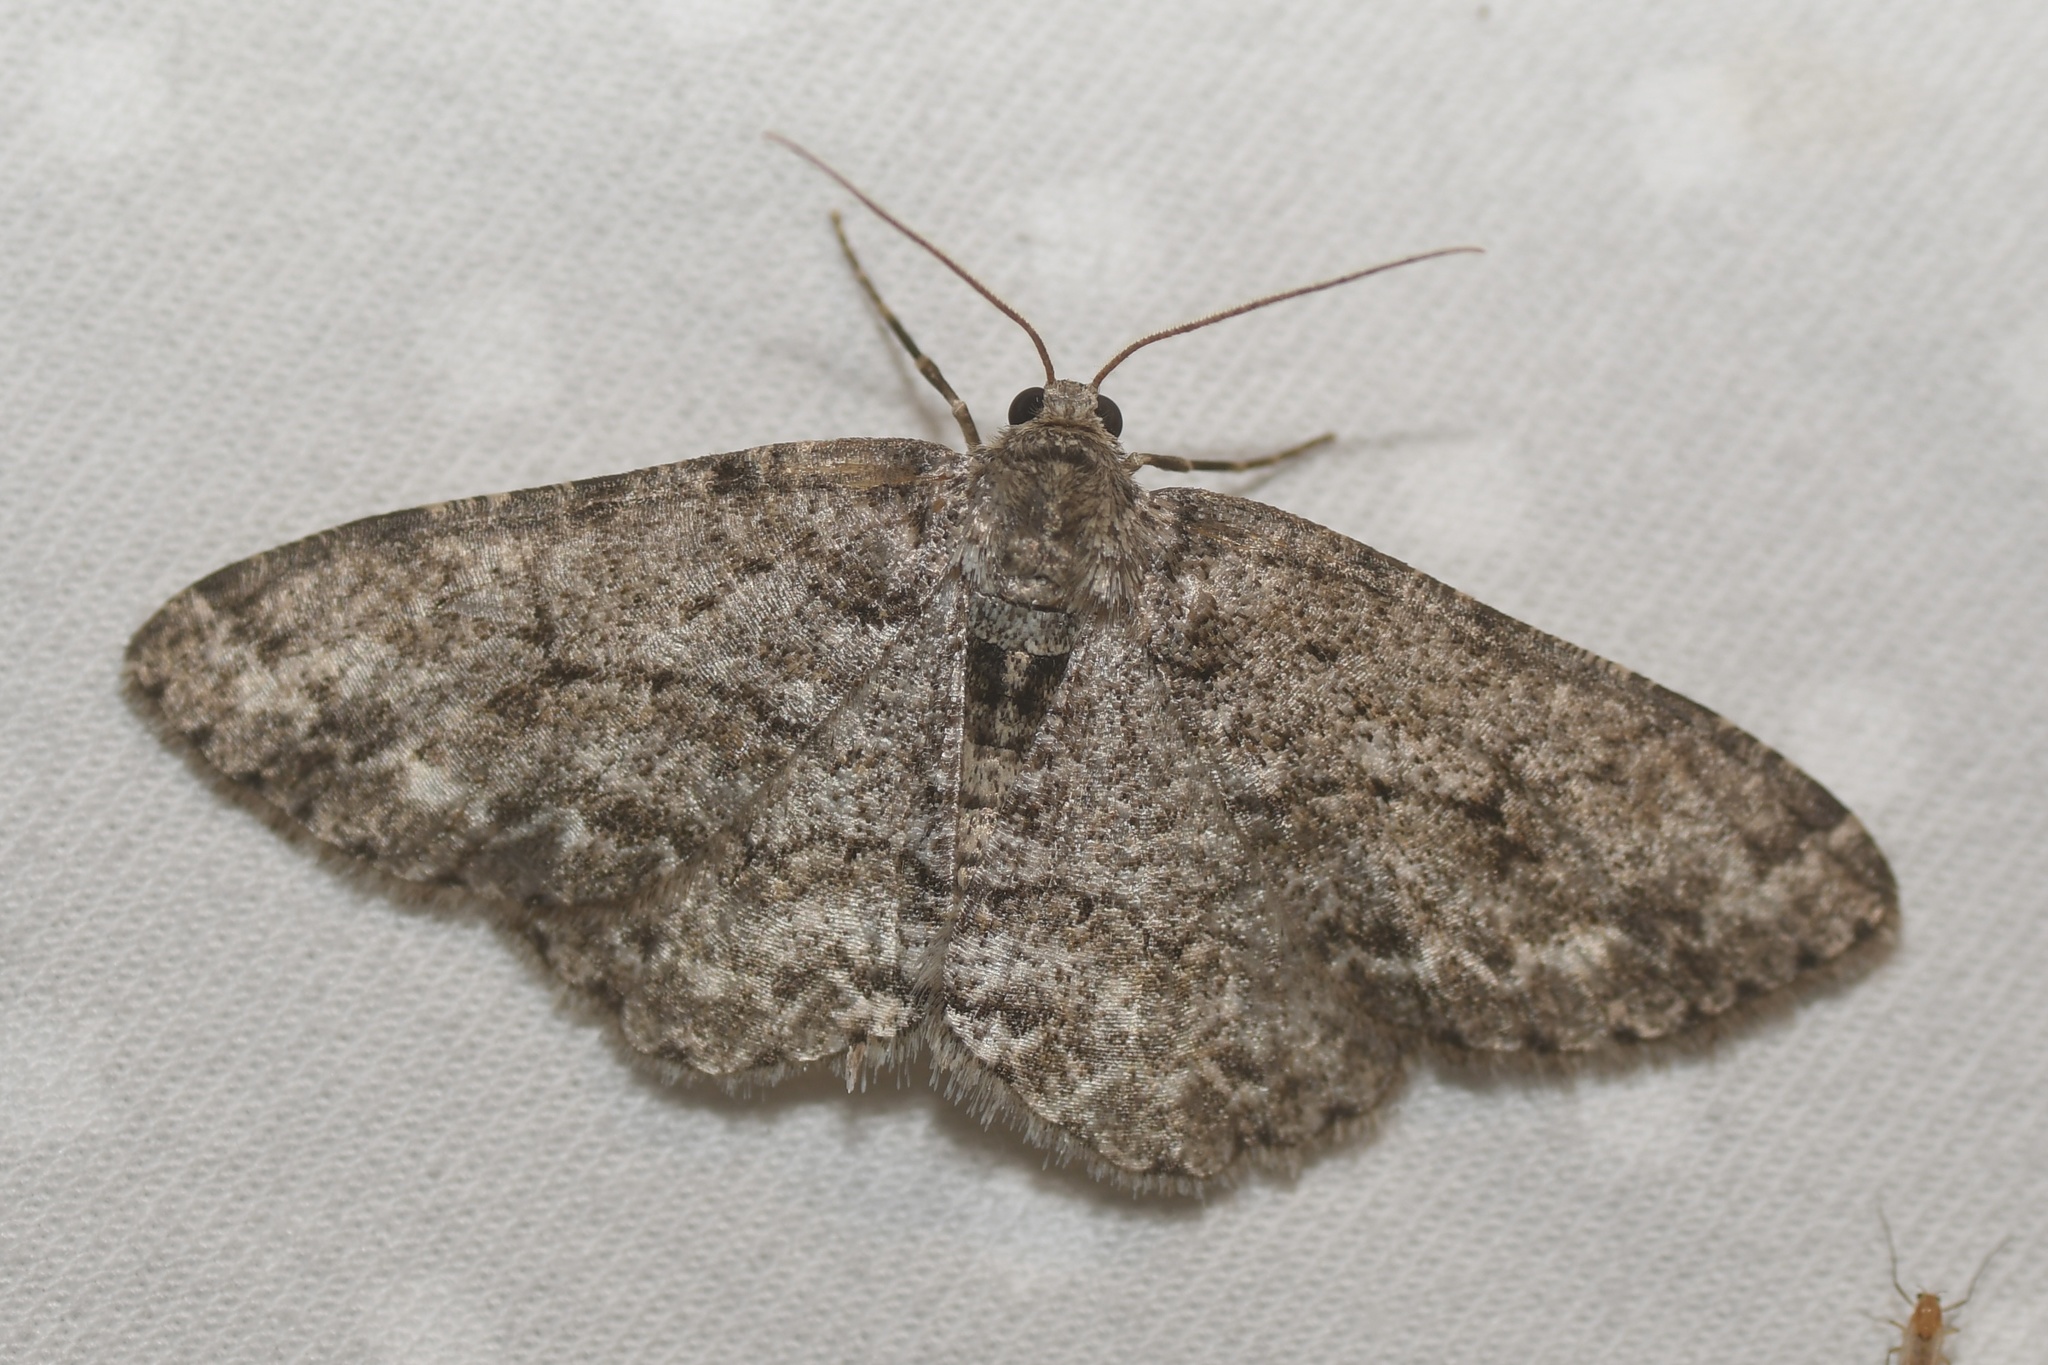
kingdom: Animalia
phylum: Arthropoda
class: Insecta
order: Lepidoptera
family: Geometridae
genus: Ectropis
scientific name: Ectropis crepuscularia
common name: Engrailed
